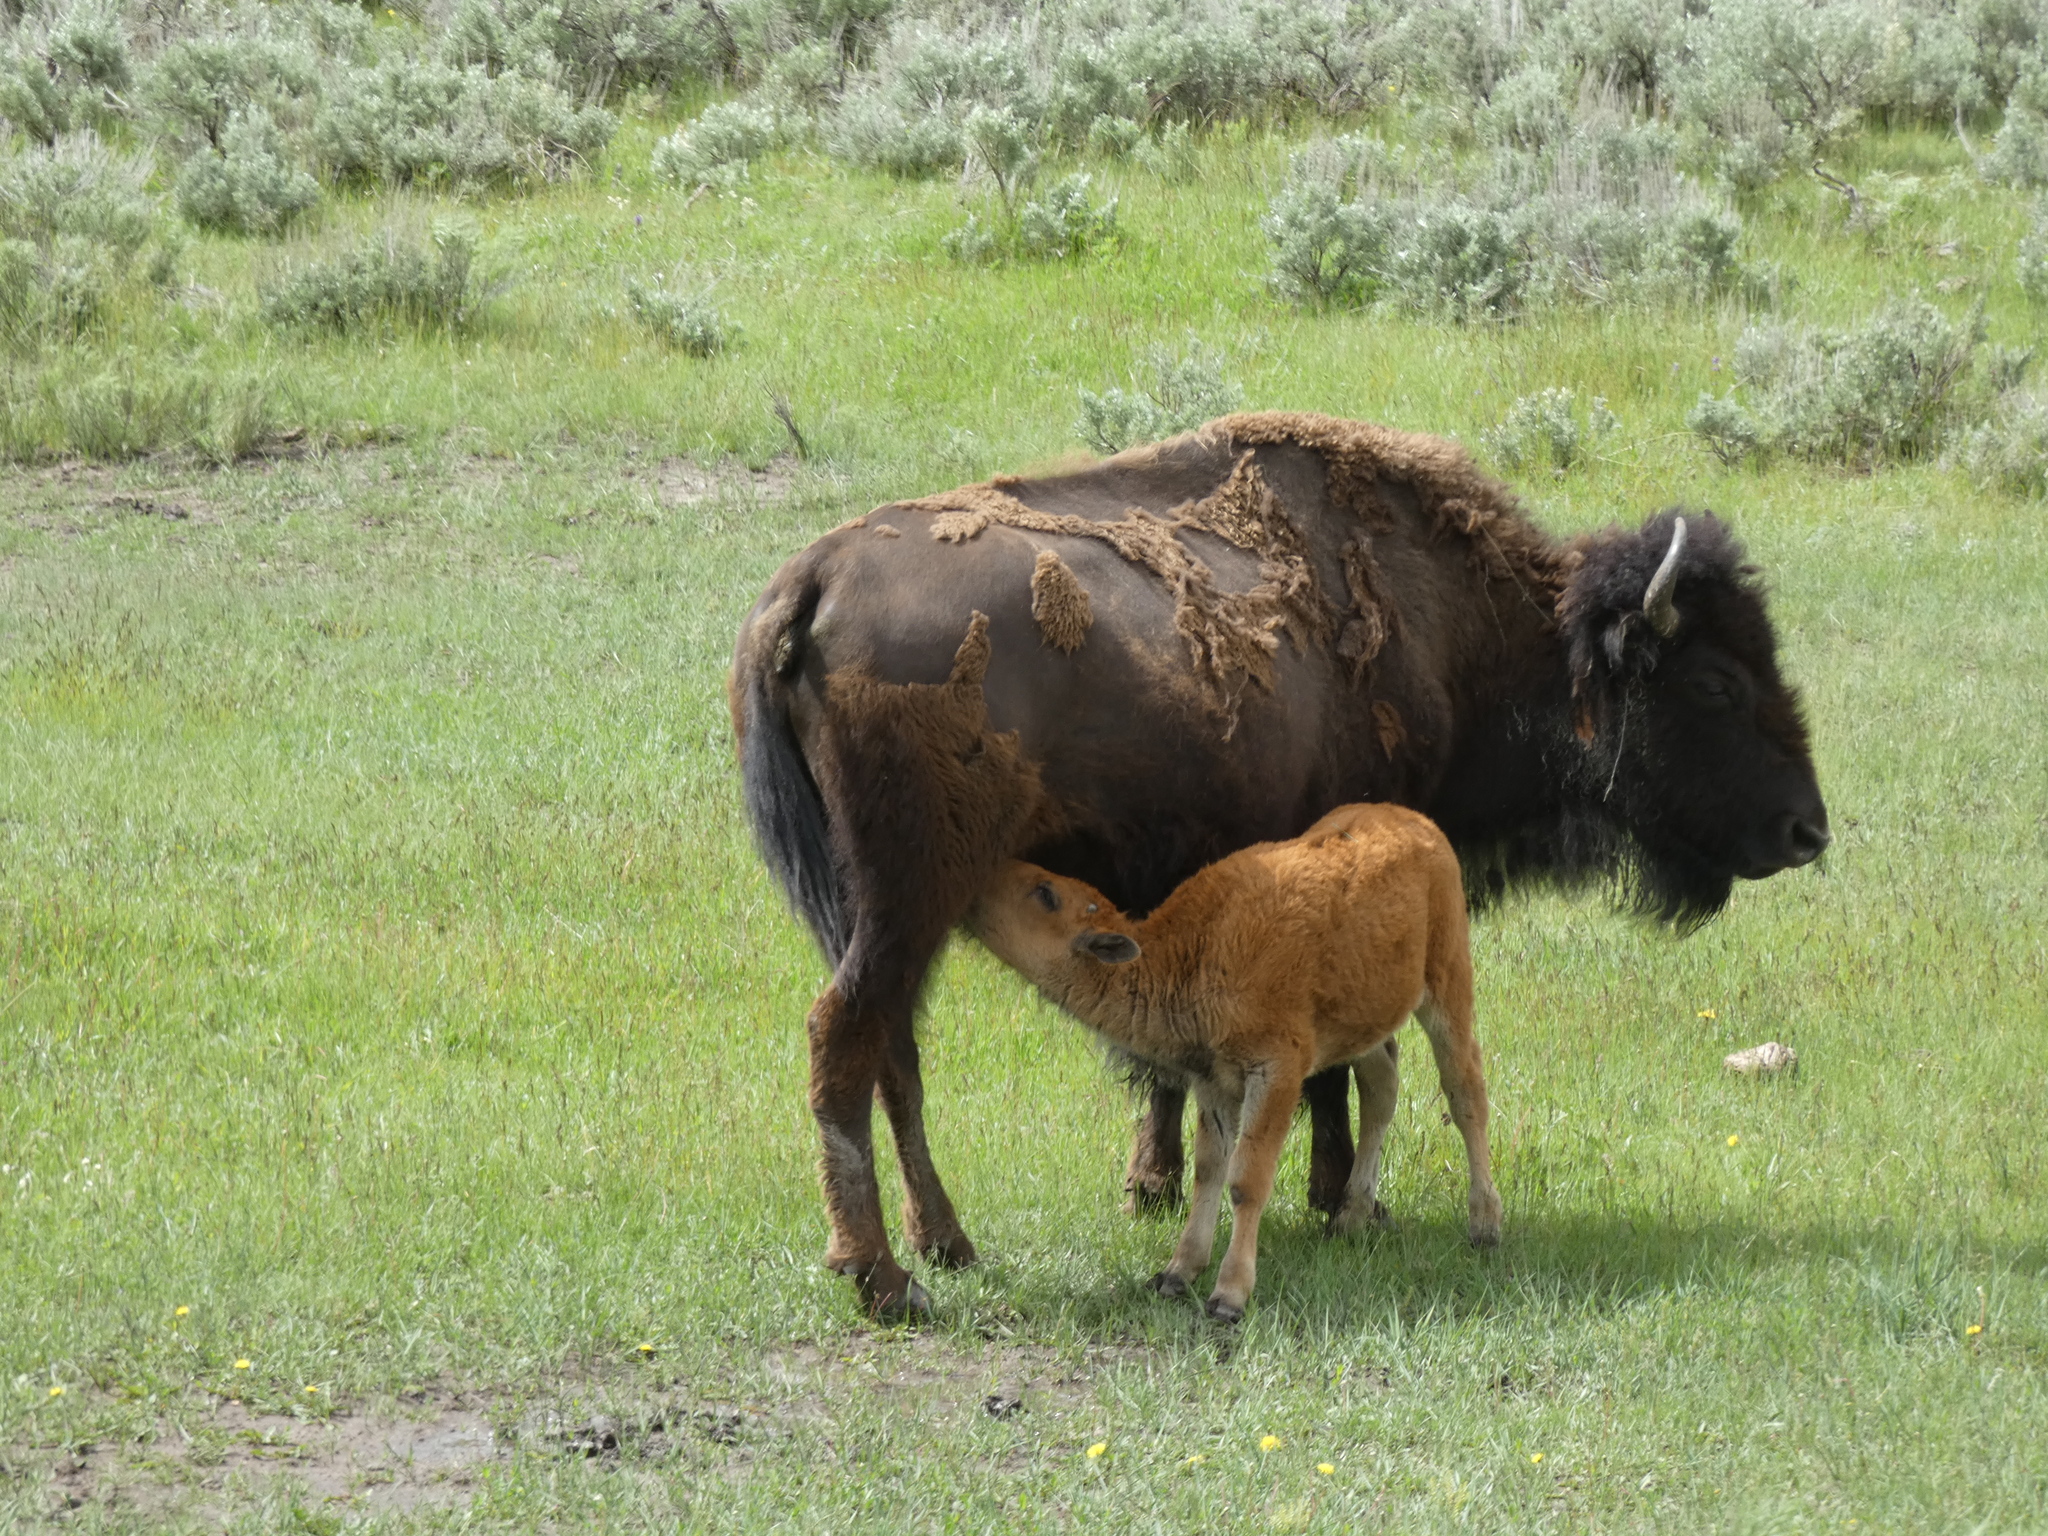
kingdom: Animalia
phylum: Chordata
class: Mammalia
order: Artiodactyla
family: Bovidae
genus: Bison
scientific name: Bison bison
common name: American bison
